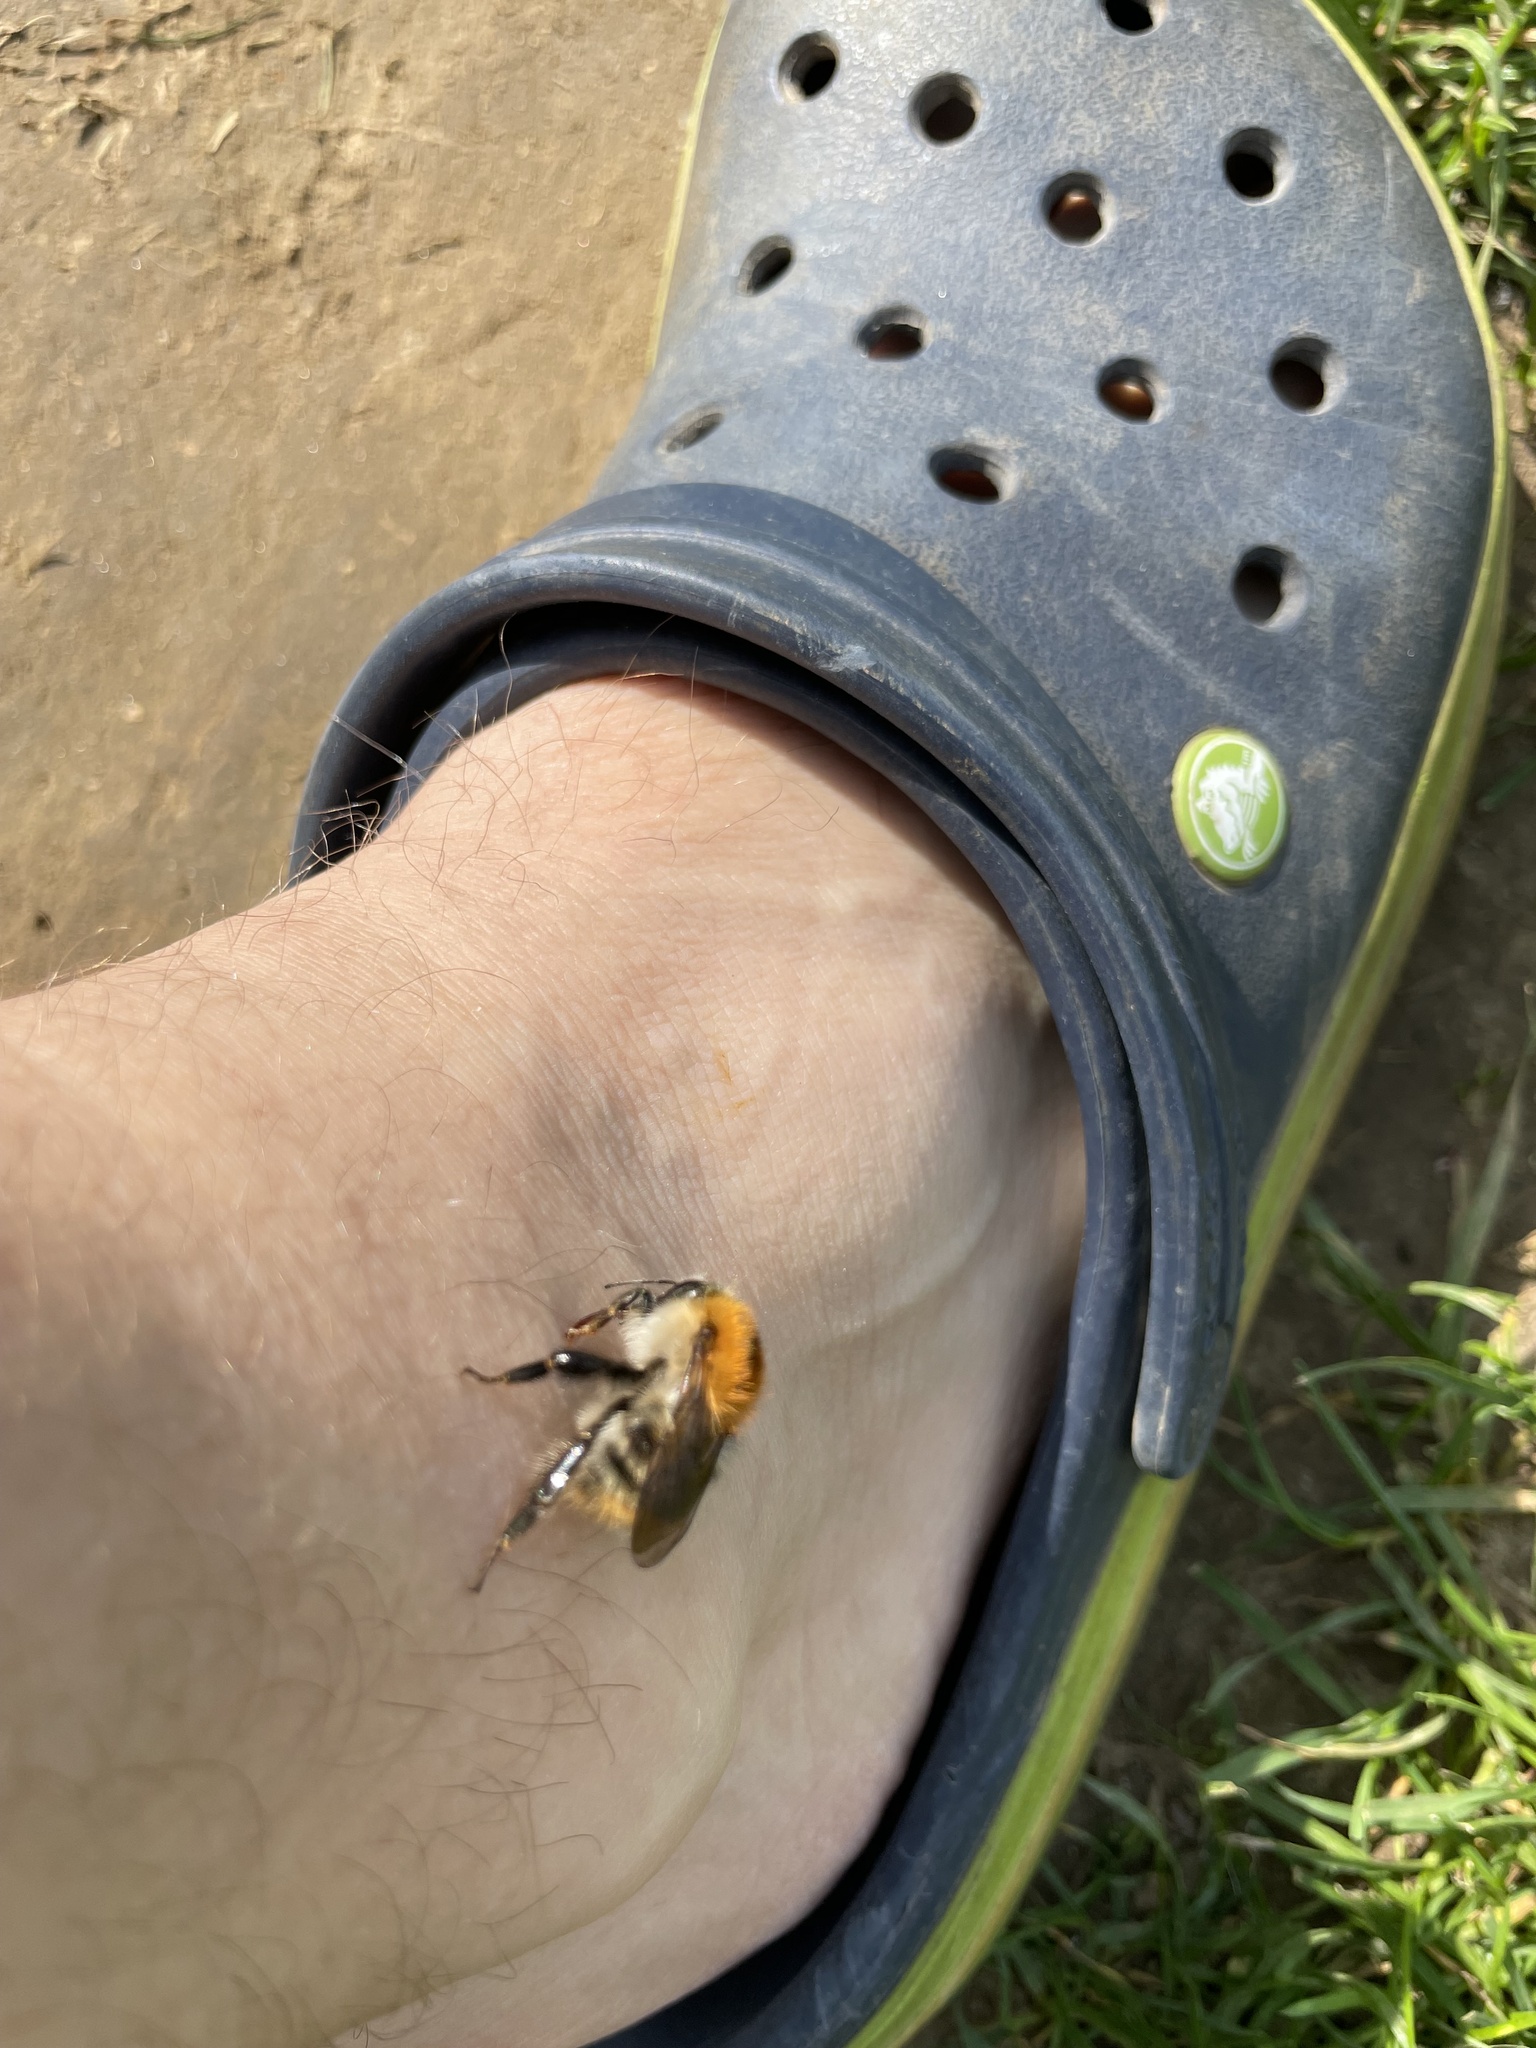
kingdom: Animalia
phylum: Arthropoda
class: Insecta
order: Hymenoptera
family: Apidae
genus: Bombus
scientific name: Bombus pascuorum
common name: Common carder bee
